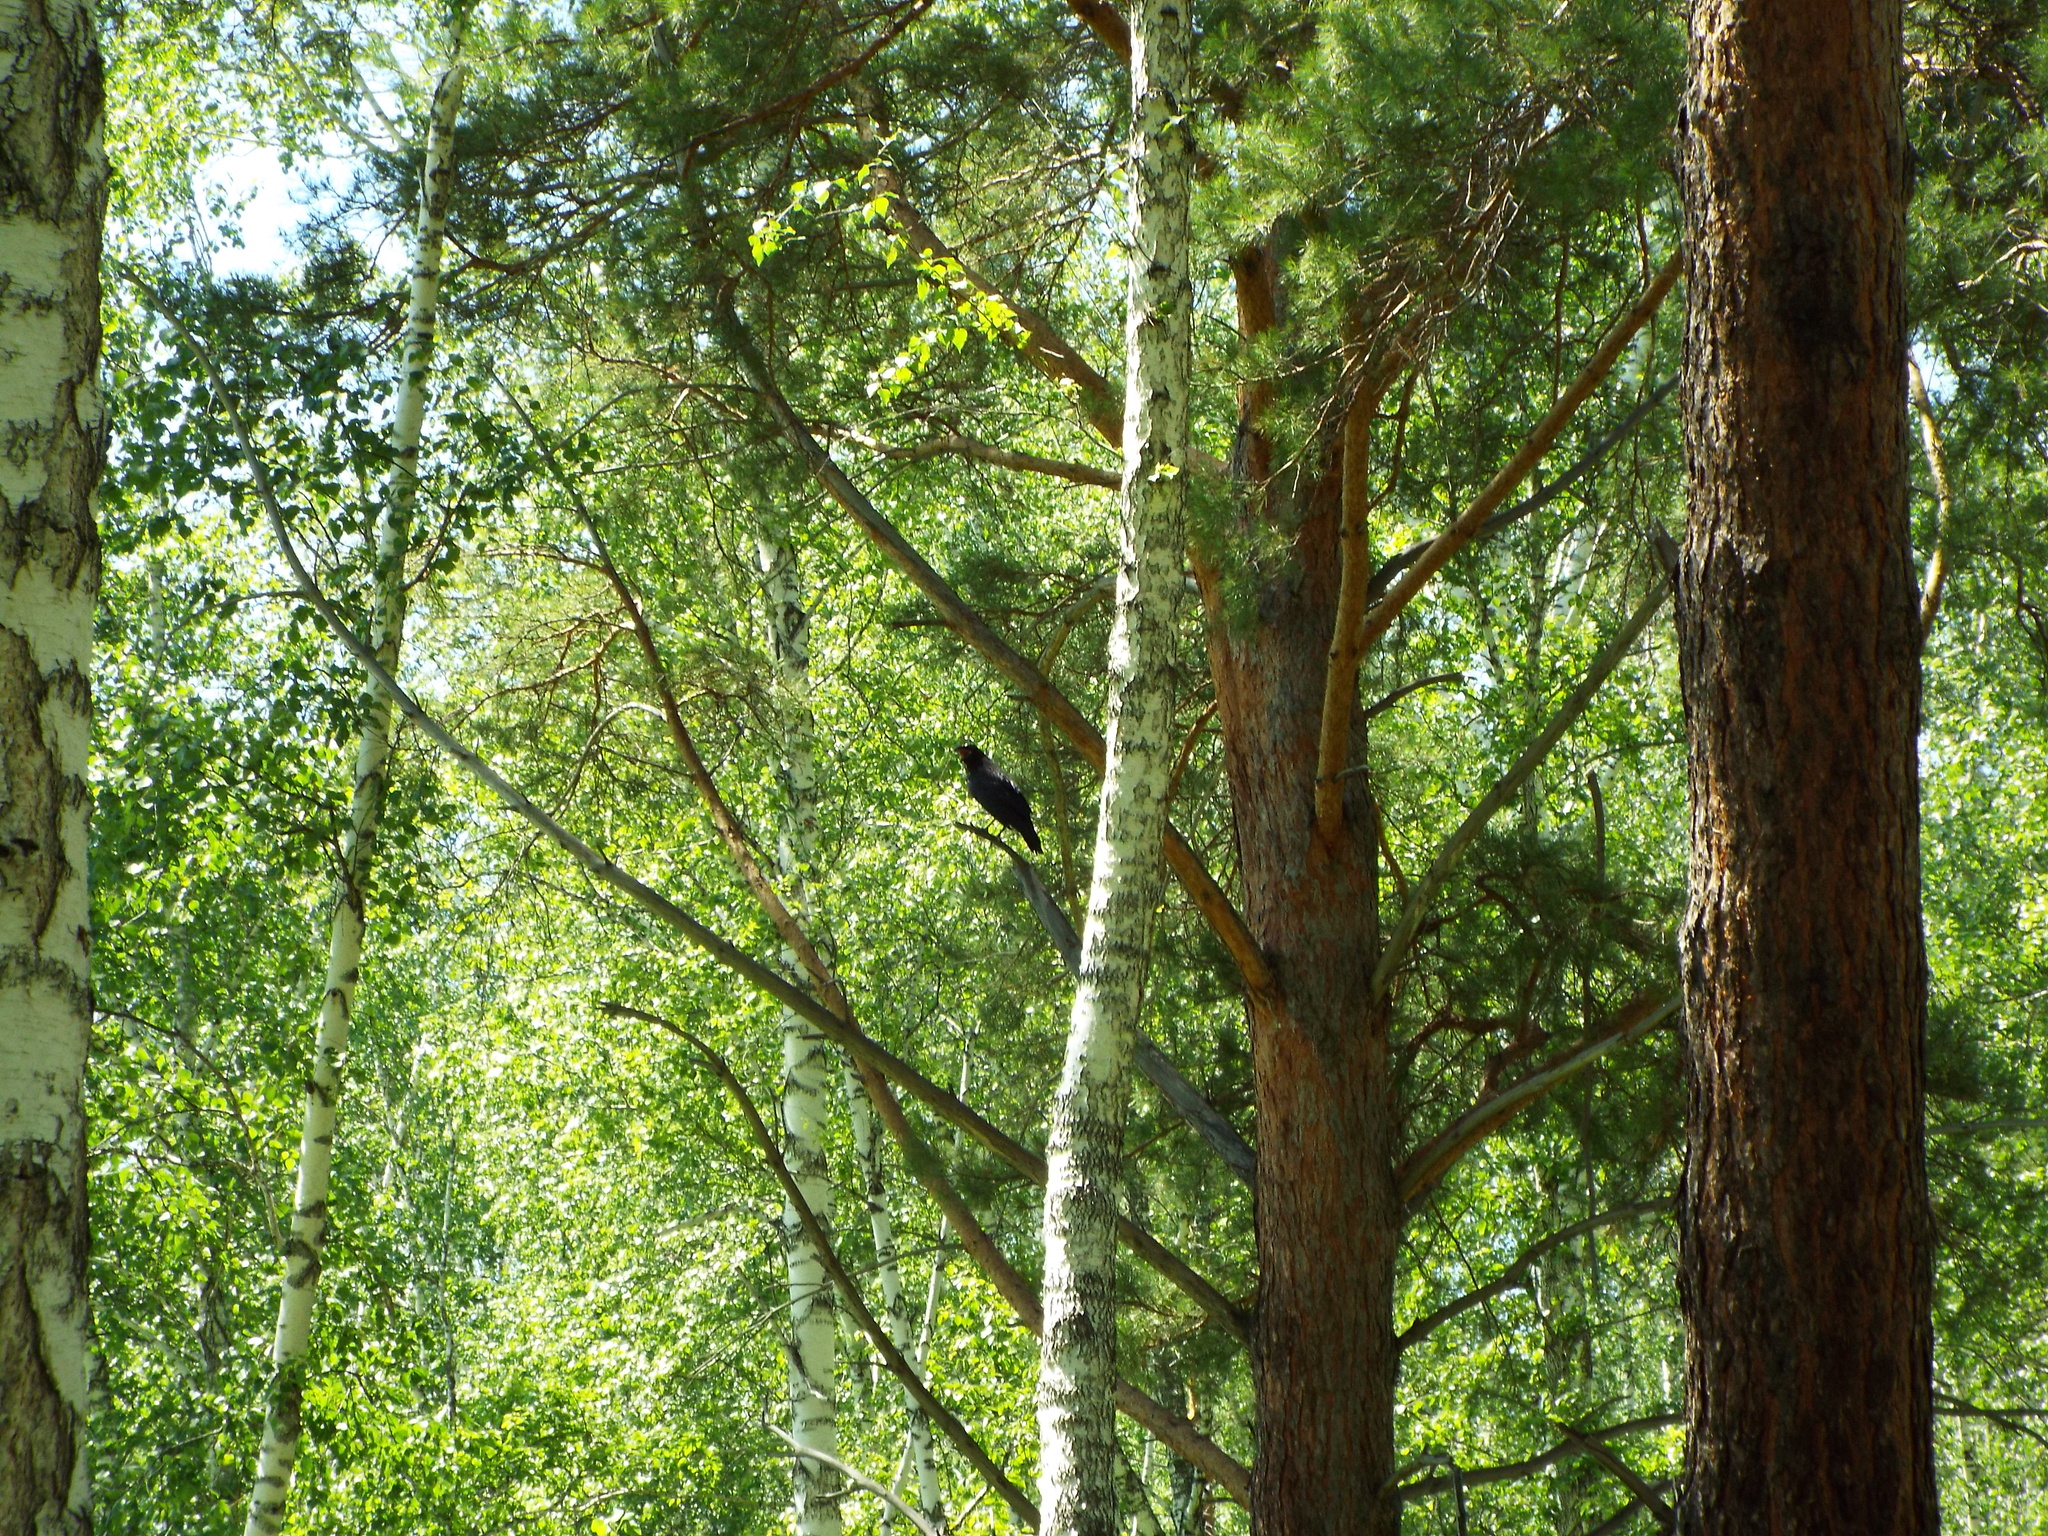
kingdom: Plantae
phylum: Tracheophyta
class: Pinopsida
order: Pinales
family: Pinaceae
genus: Pinus
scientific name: Pinus sylvestris
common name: Scots pine
